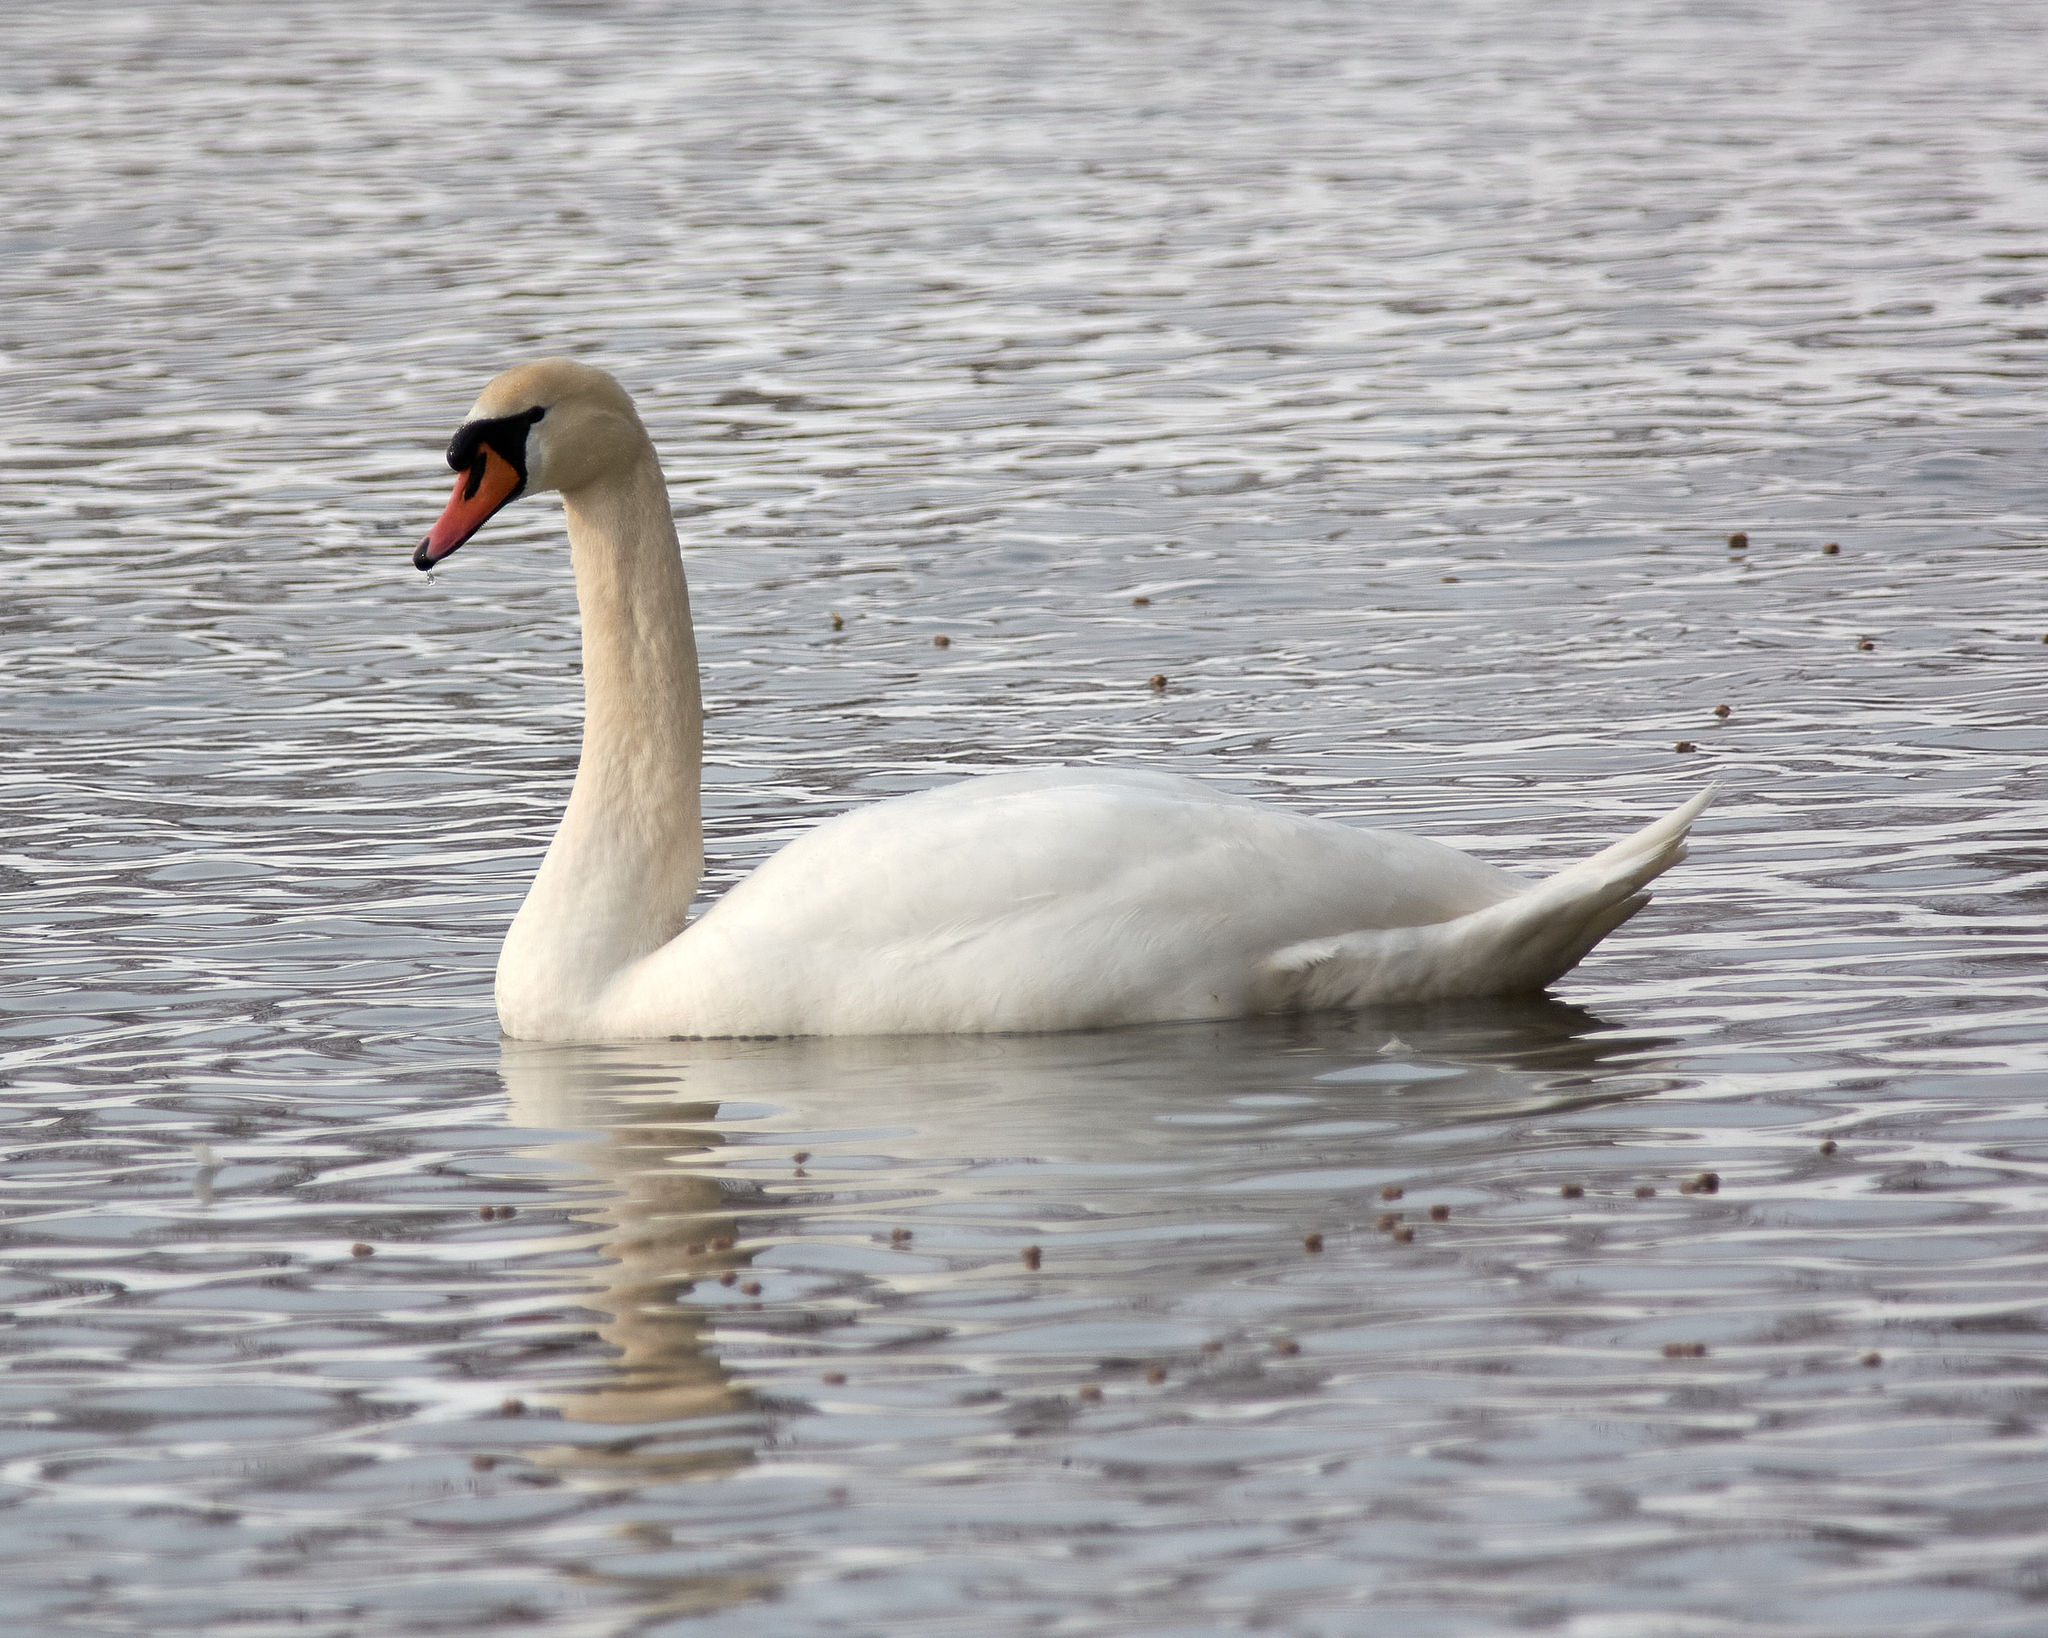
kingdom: Animalia
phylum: Chordata
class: Aves
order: Anseriformes
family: Anatidae
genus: Cygnus
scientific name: Cygnus olor
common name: Mute swan
